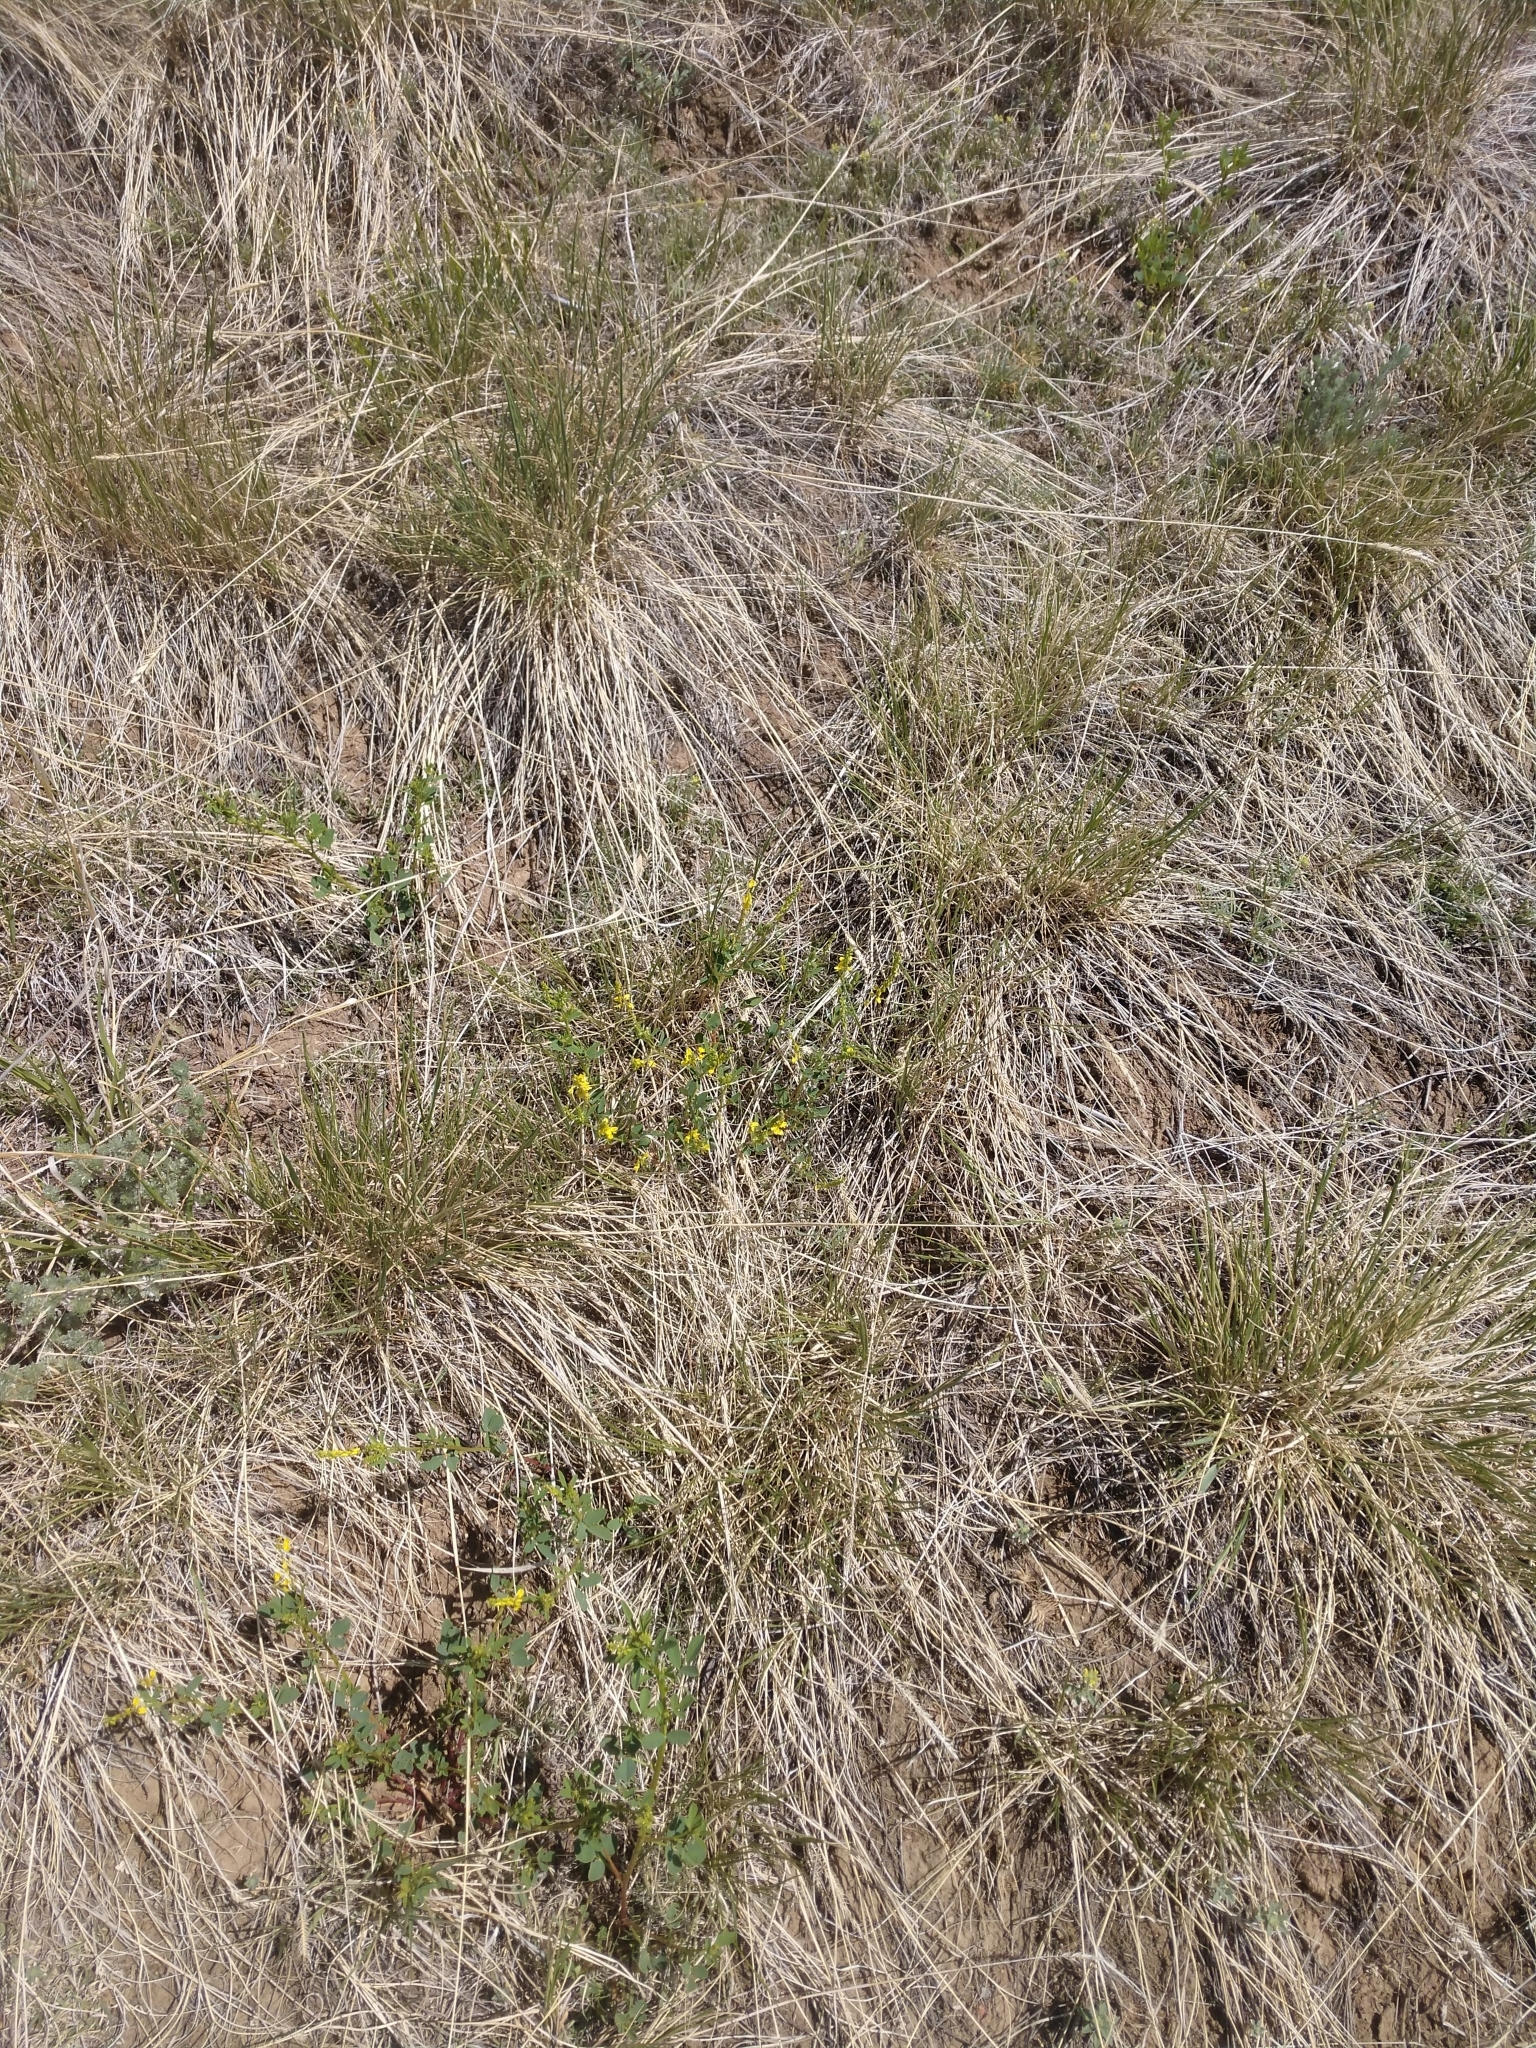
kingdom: Plantae
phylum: Tracheophyta
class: Magnoliopsida
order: Fabales
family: Fabaceae
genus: Melilotus
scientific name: Melilotus officinalis
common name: Sweetclover
